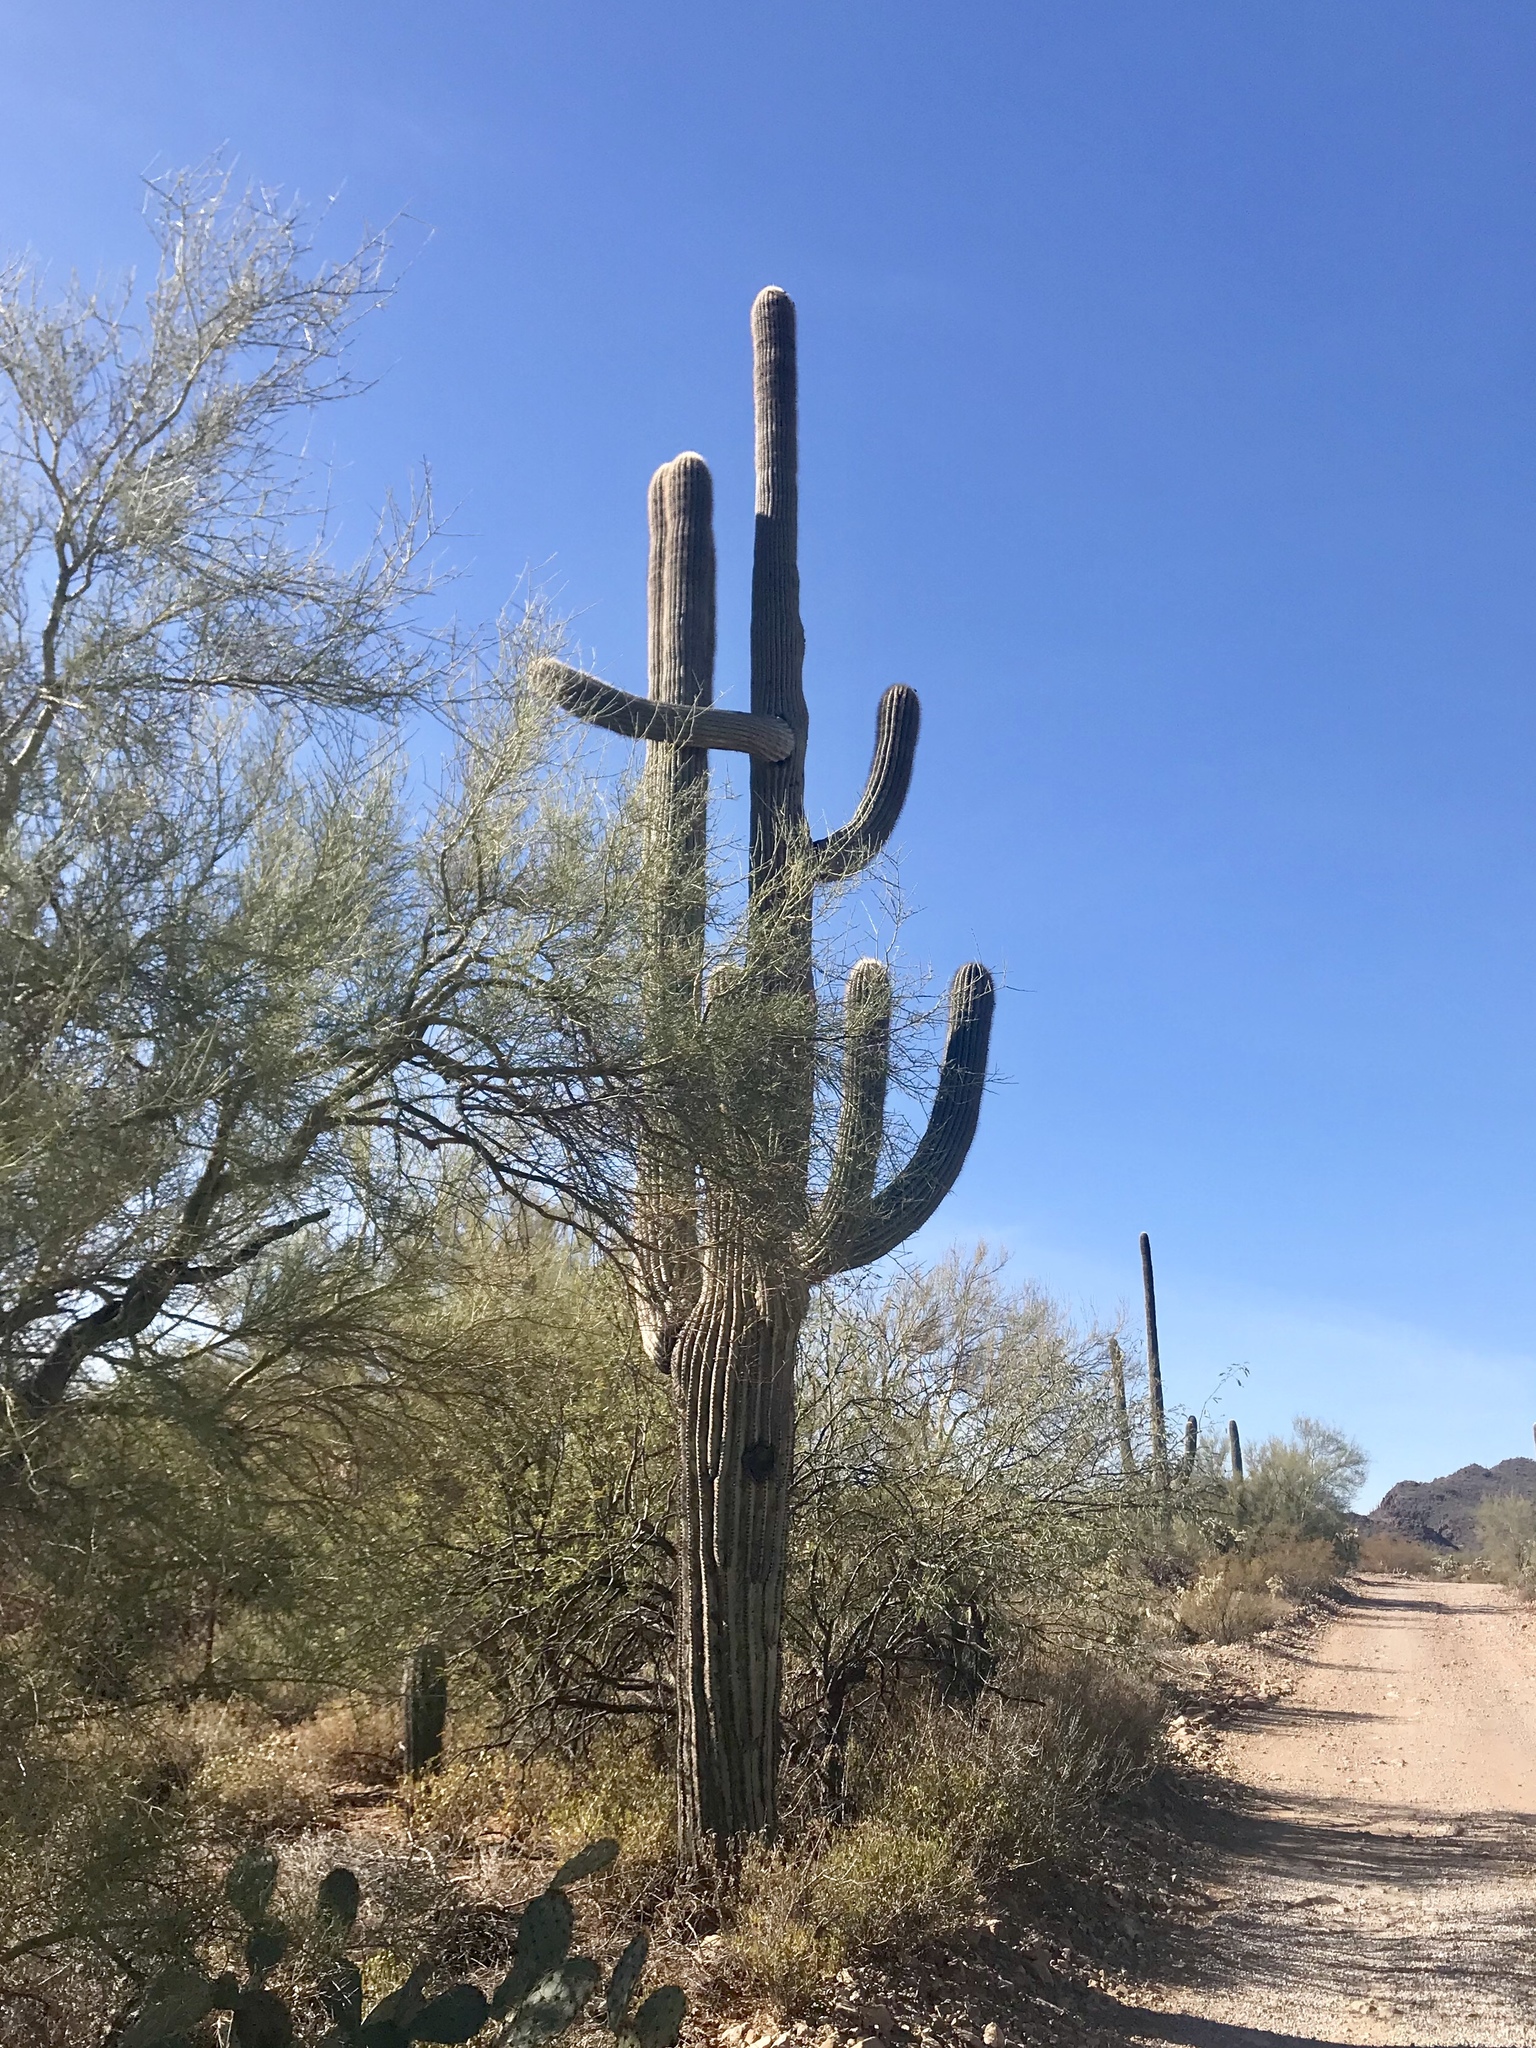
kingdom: Plantae
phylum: Tracheophyta
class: Magnoliopsida
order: Caryophyllales
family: Cactaceae
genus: Carnegiea
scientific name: Carnegiea gigantea
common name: Saguaro
